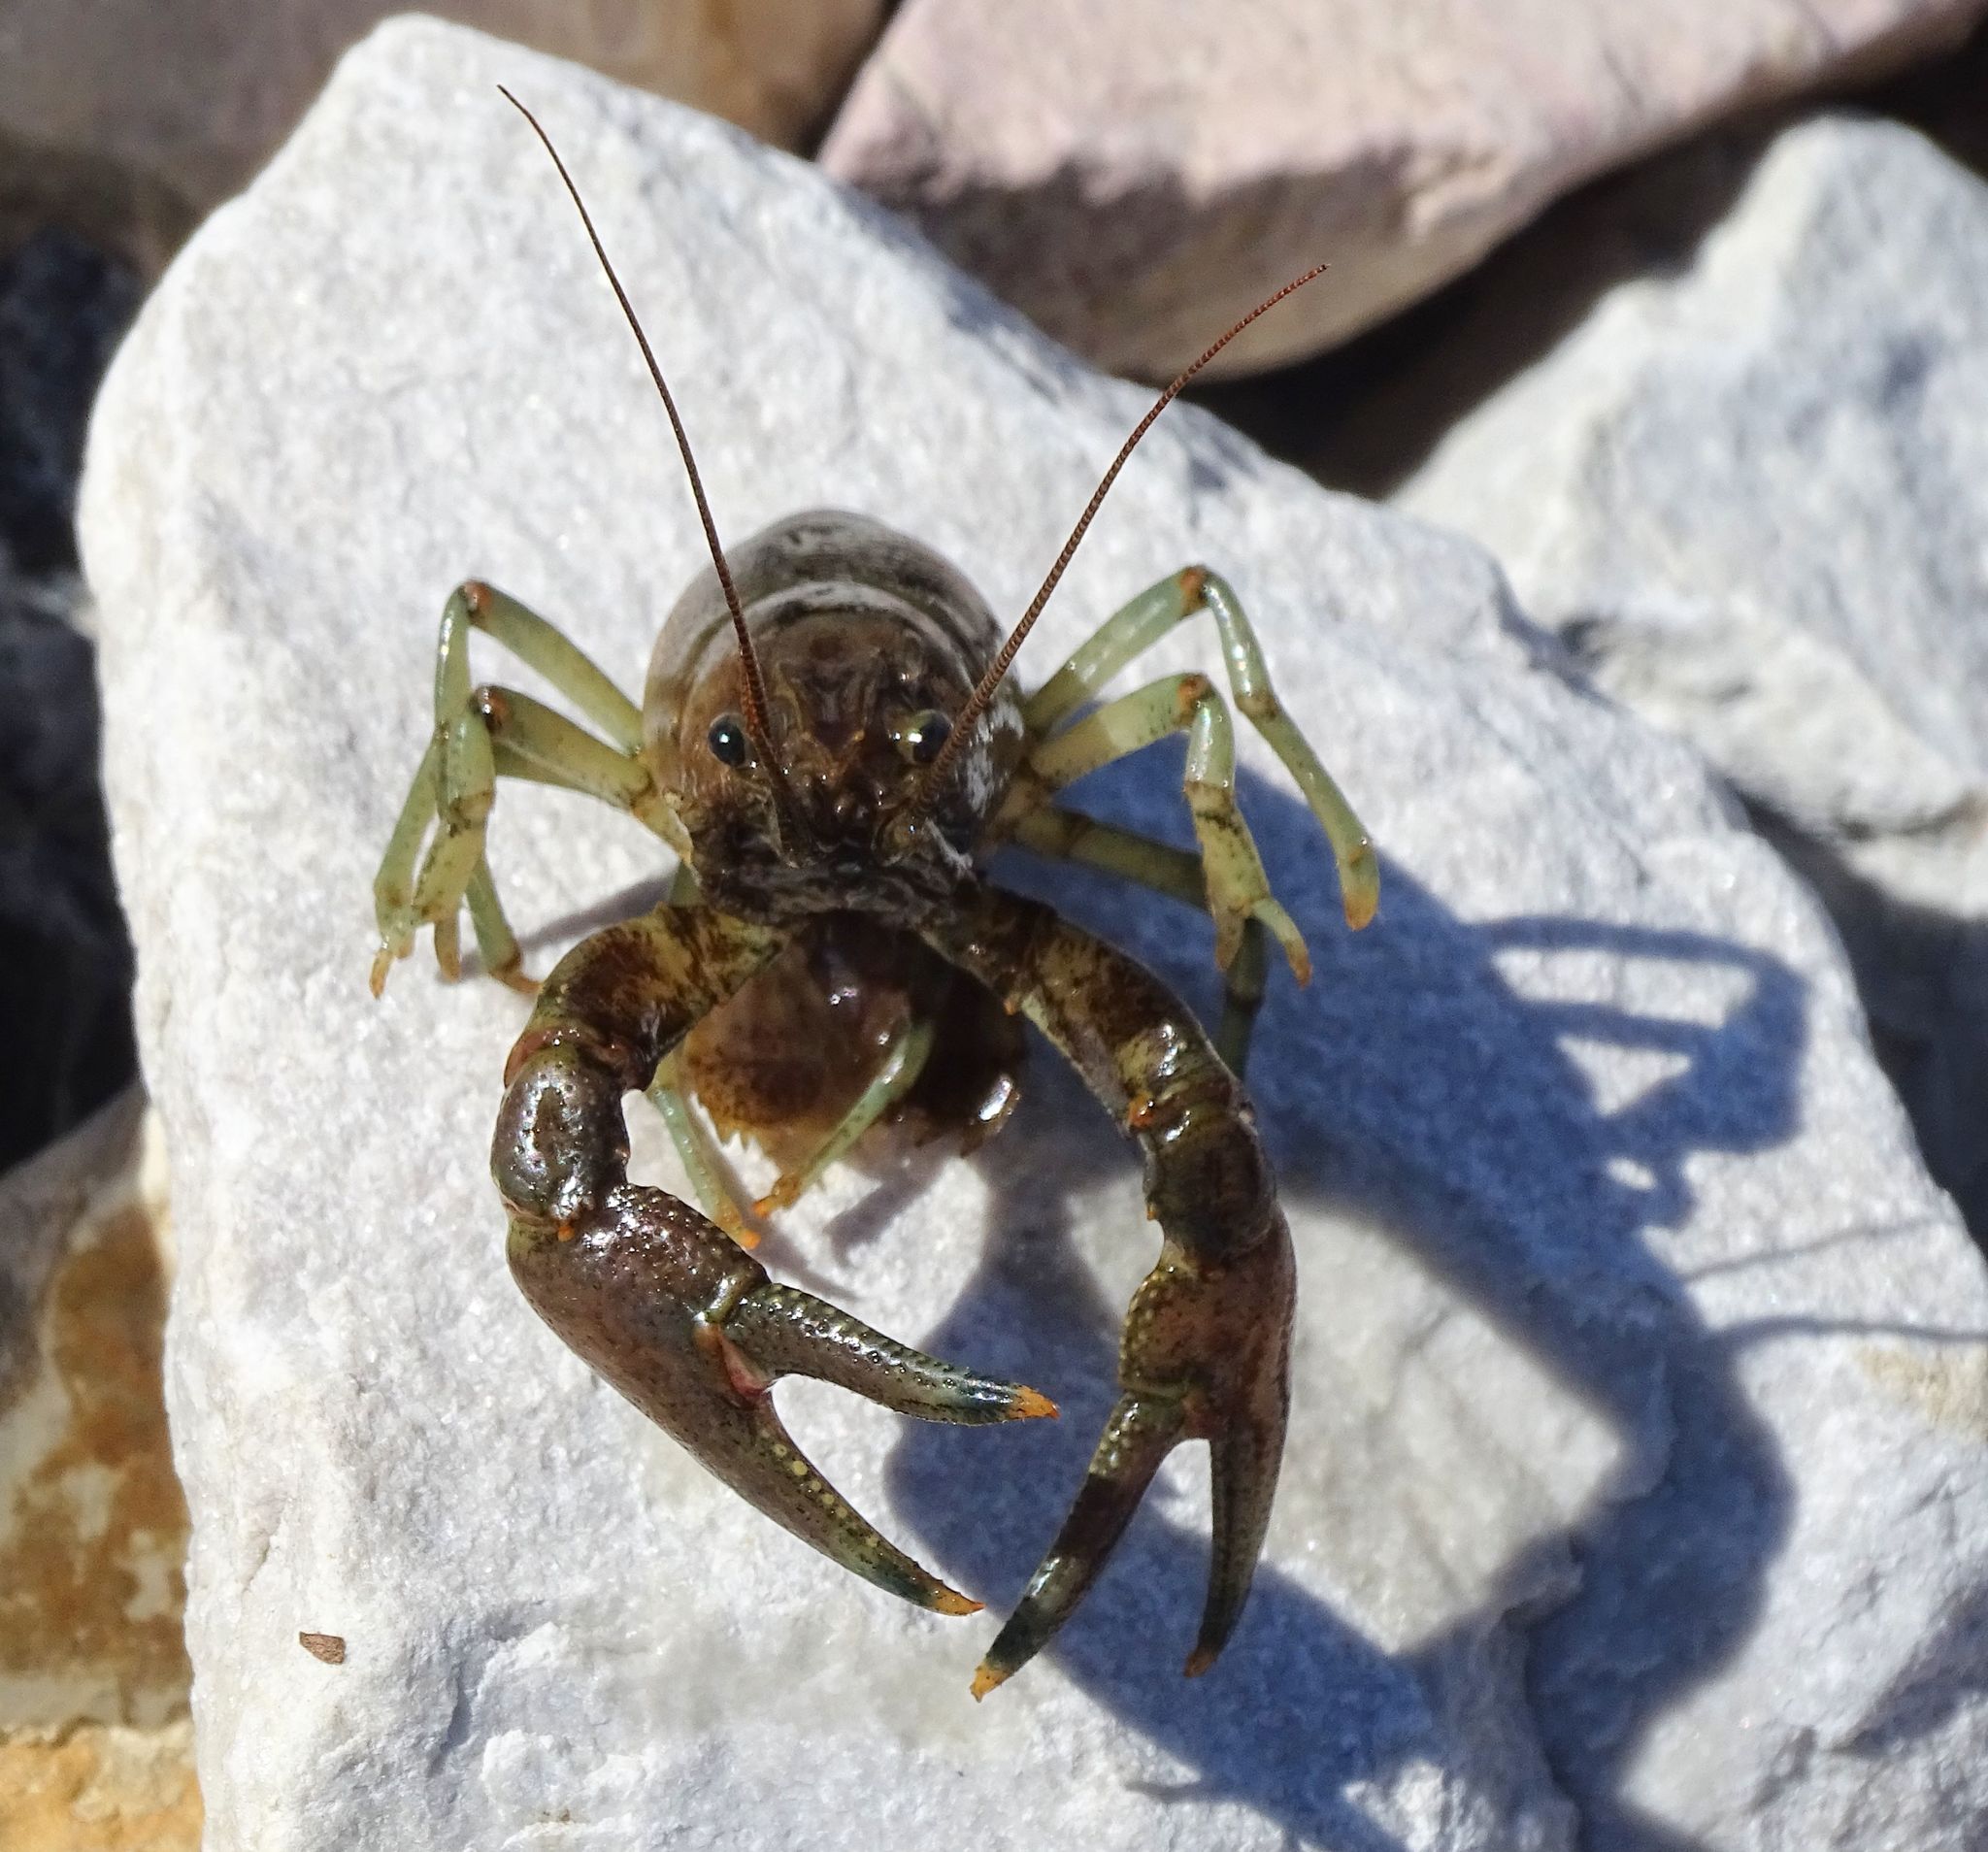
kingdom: Animalia
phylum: Arthropoda
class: Malacostraca
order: Decapoda
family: Cambaridae
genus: Faxonius
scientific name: Faxonius rusticus
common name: Rusty crayfish
